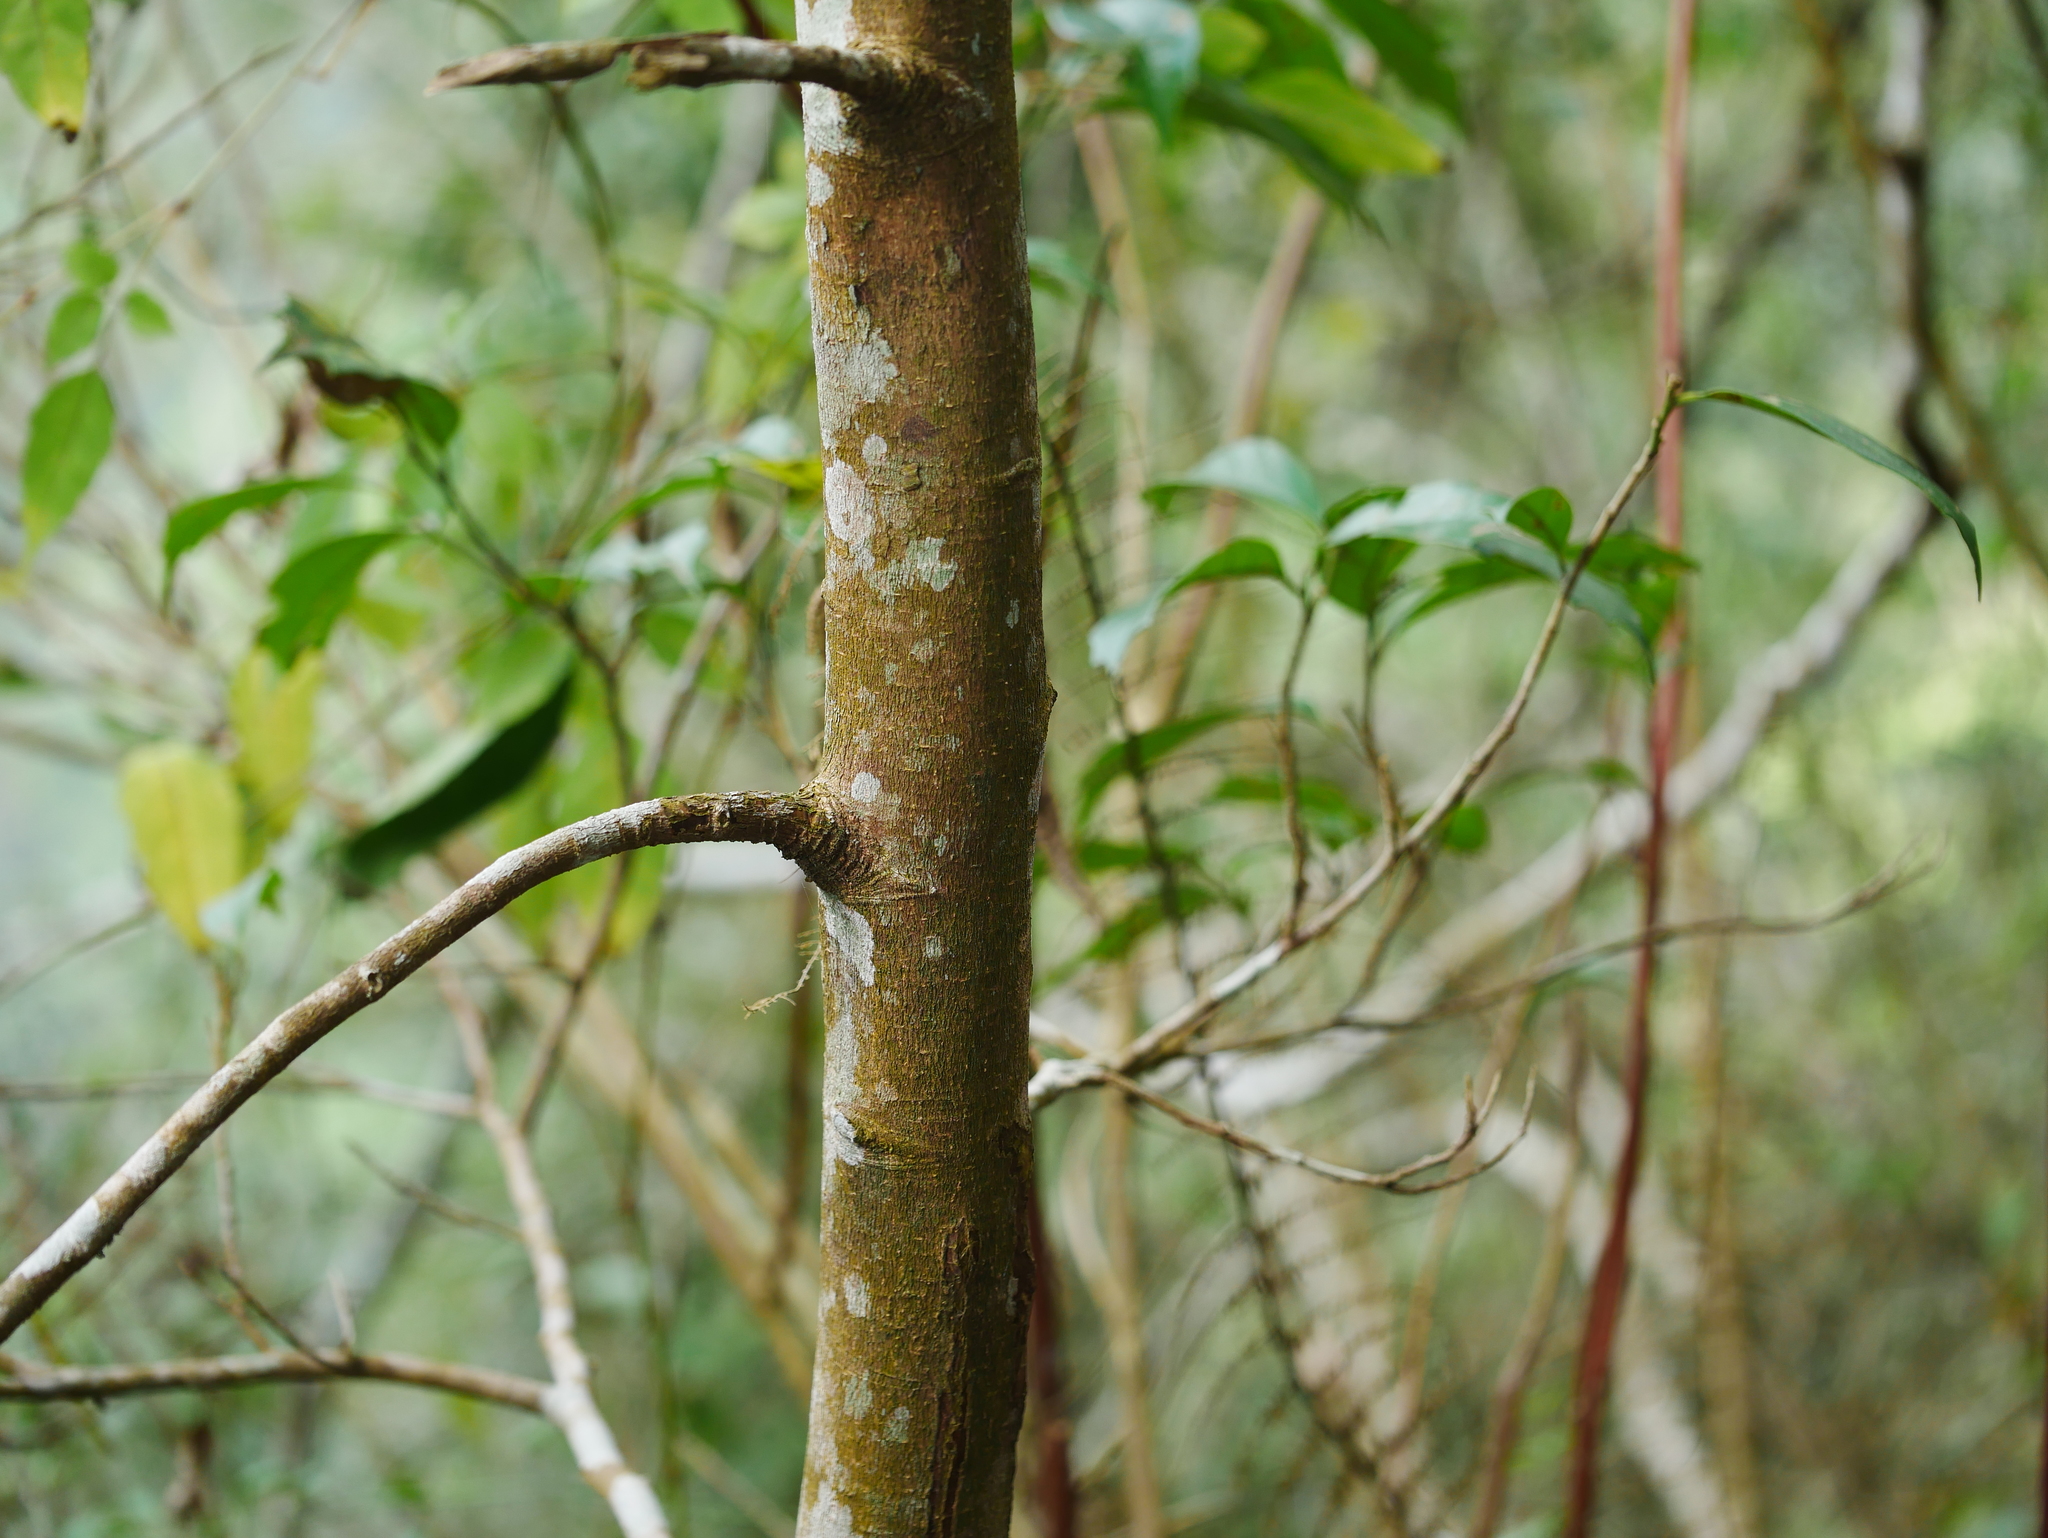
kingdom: Plantae
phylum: Tracheophyta
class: Magnoliopsida
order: Saxifragales
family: Hamamelidaceae
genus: Eustigma
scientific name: Eustigma oblongifolium
